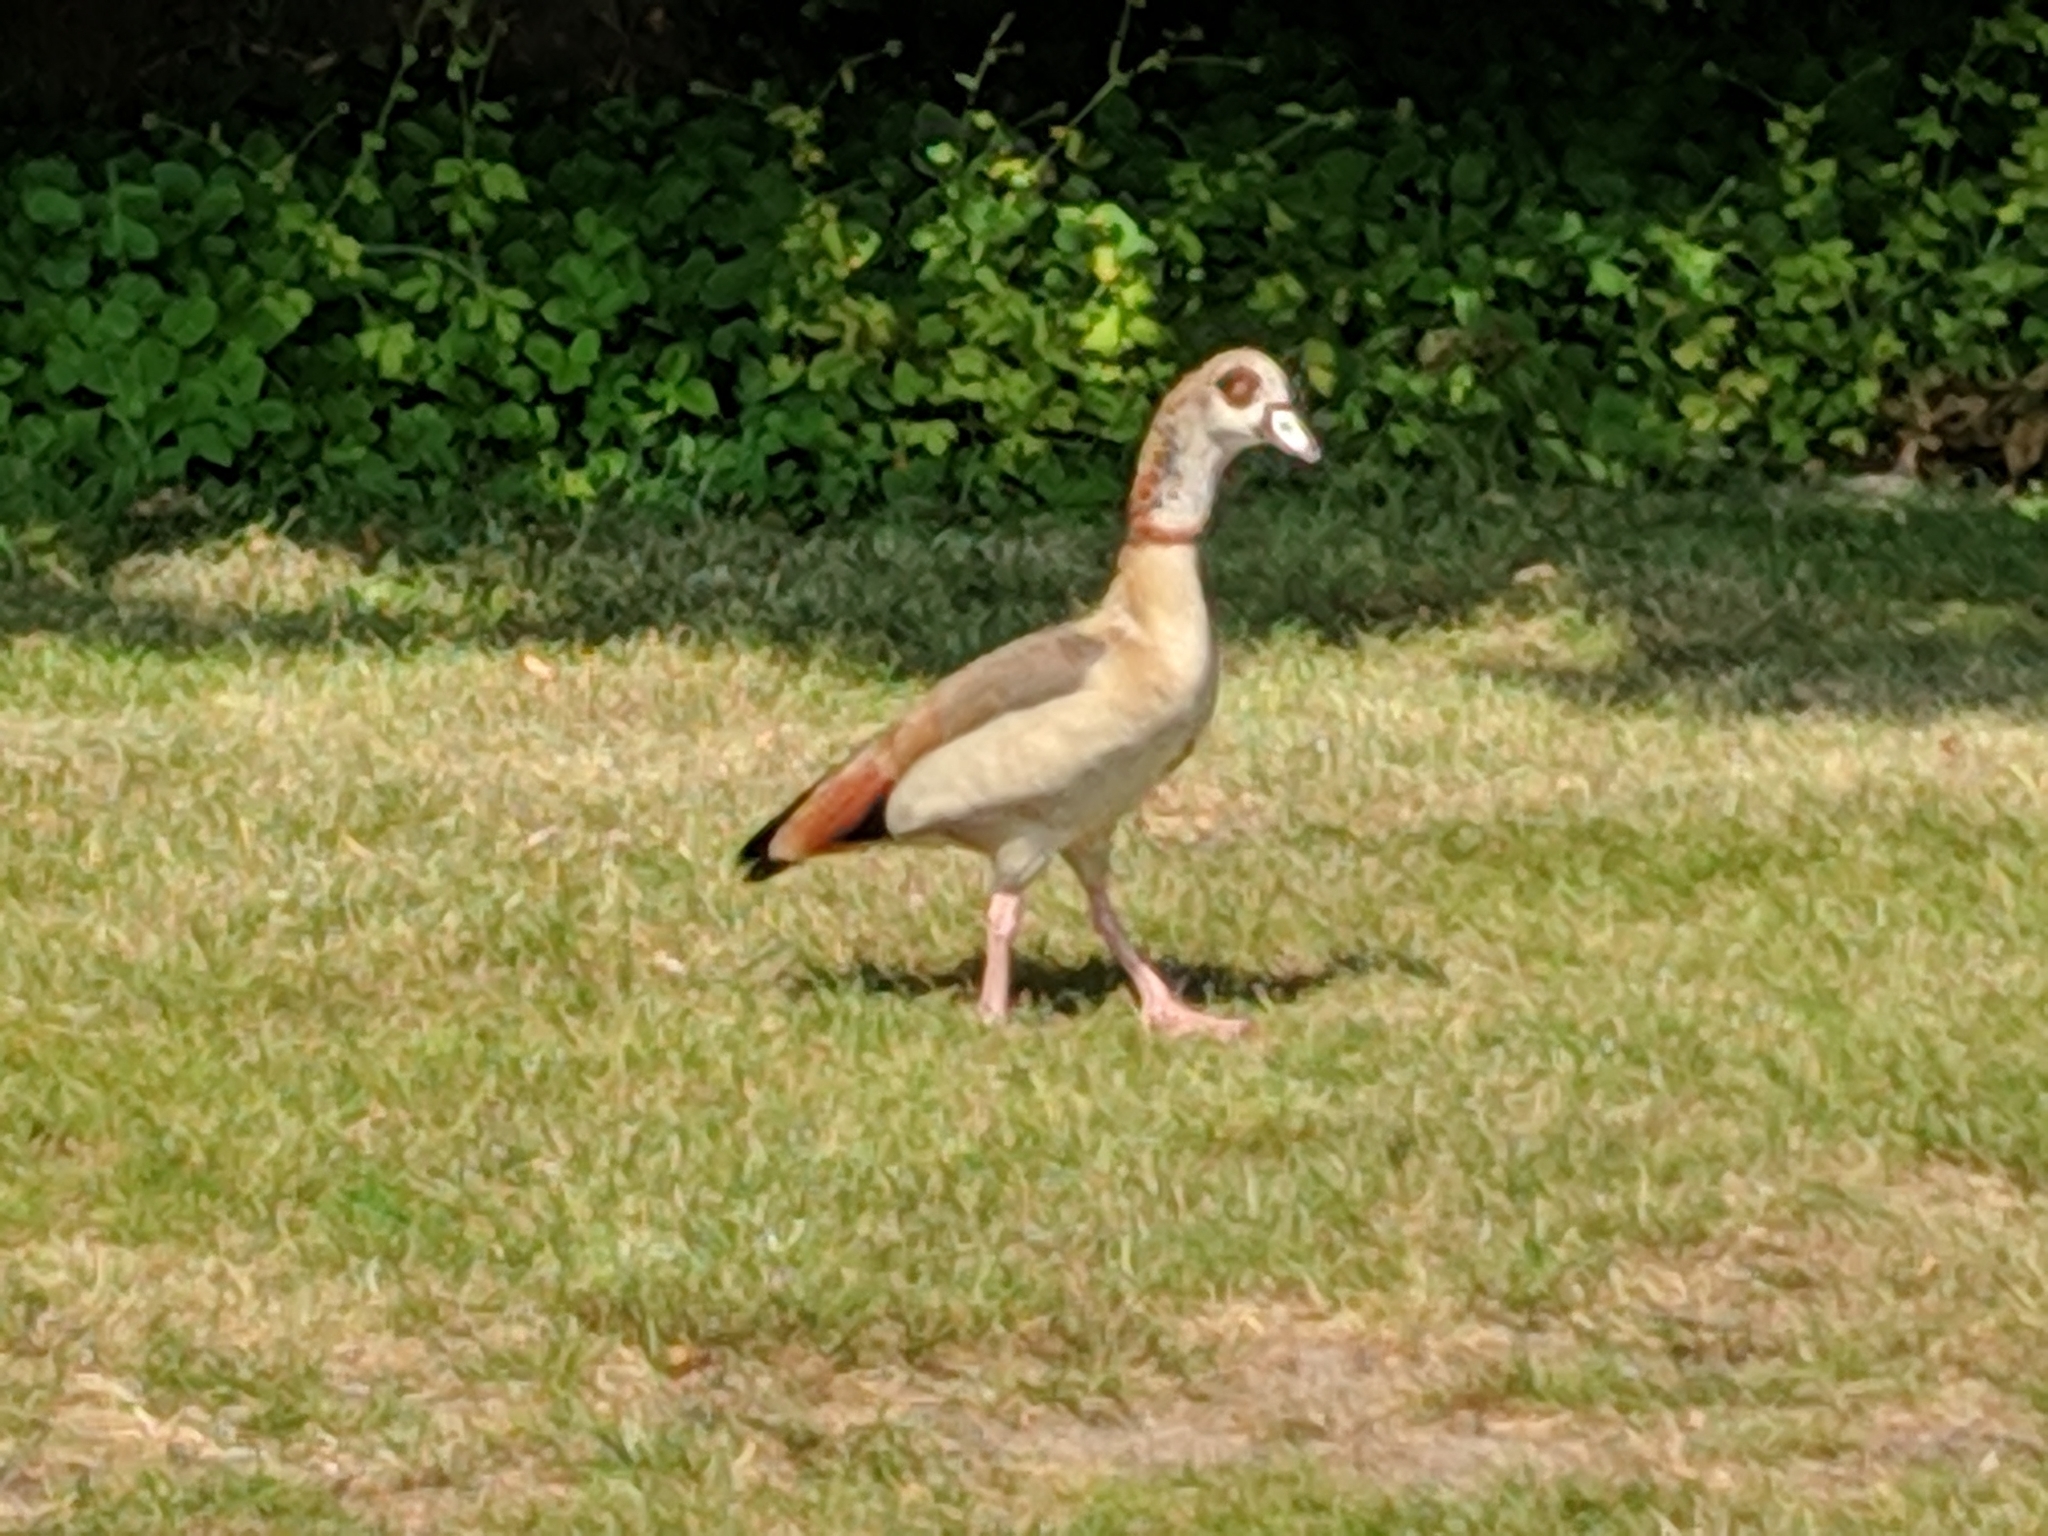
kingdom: Animalia
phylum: Chordata
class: Aves
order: Anseriformes
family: Anatidae
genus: Alopochen
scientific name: Alopochen aegyptiaca
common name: Egyptian goose
